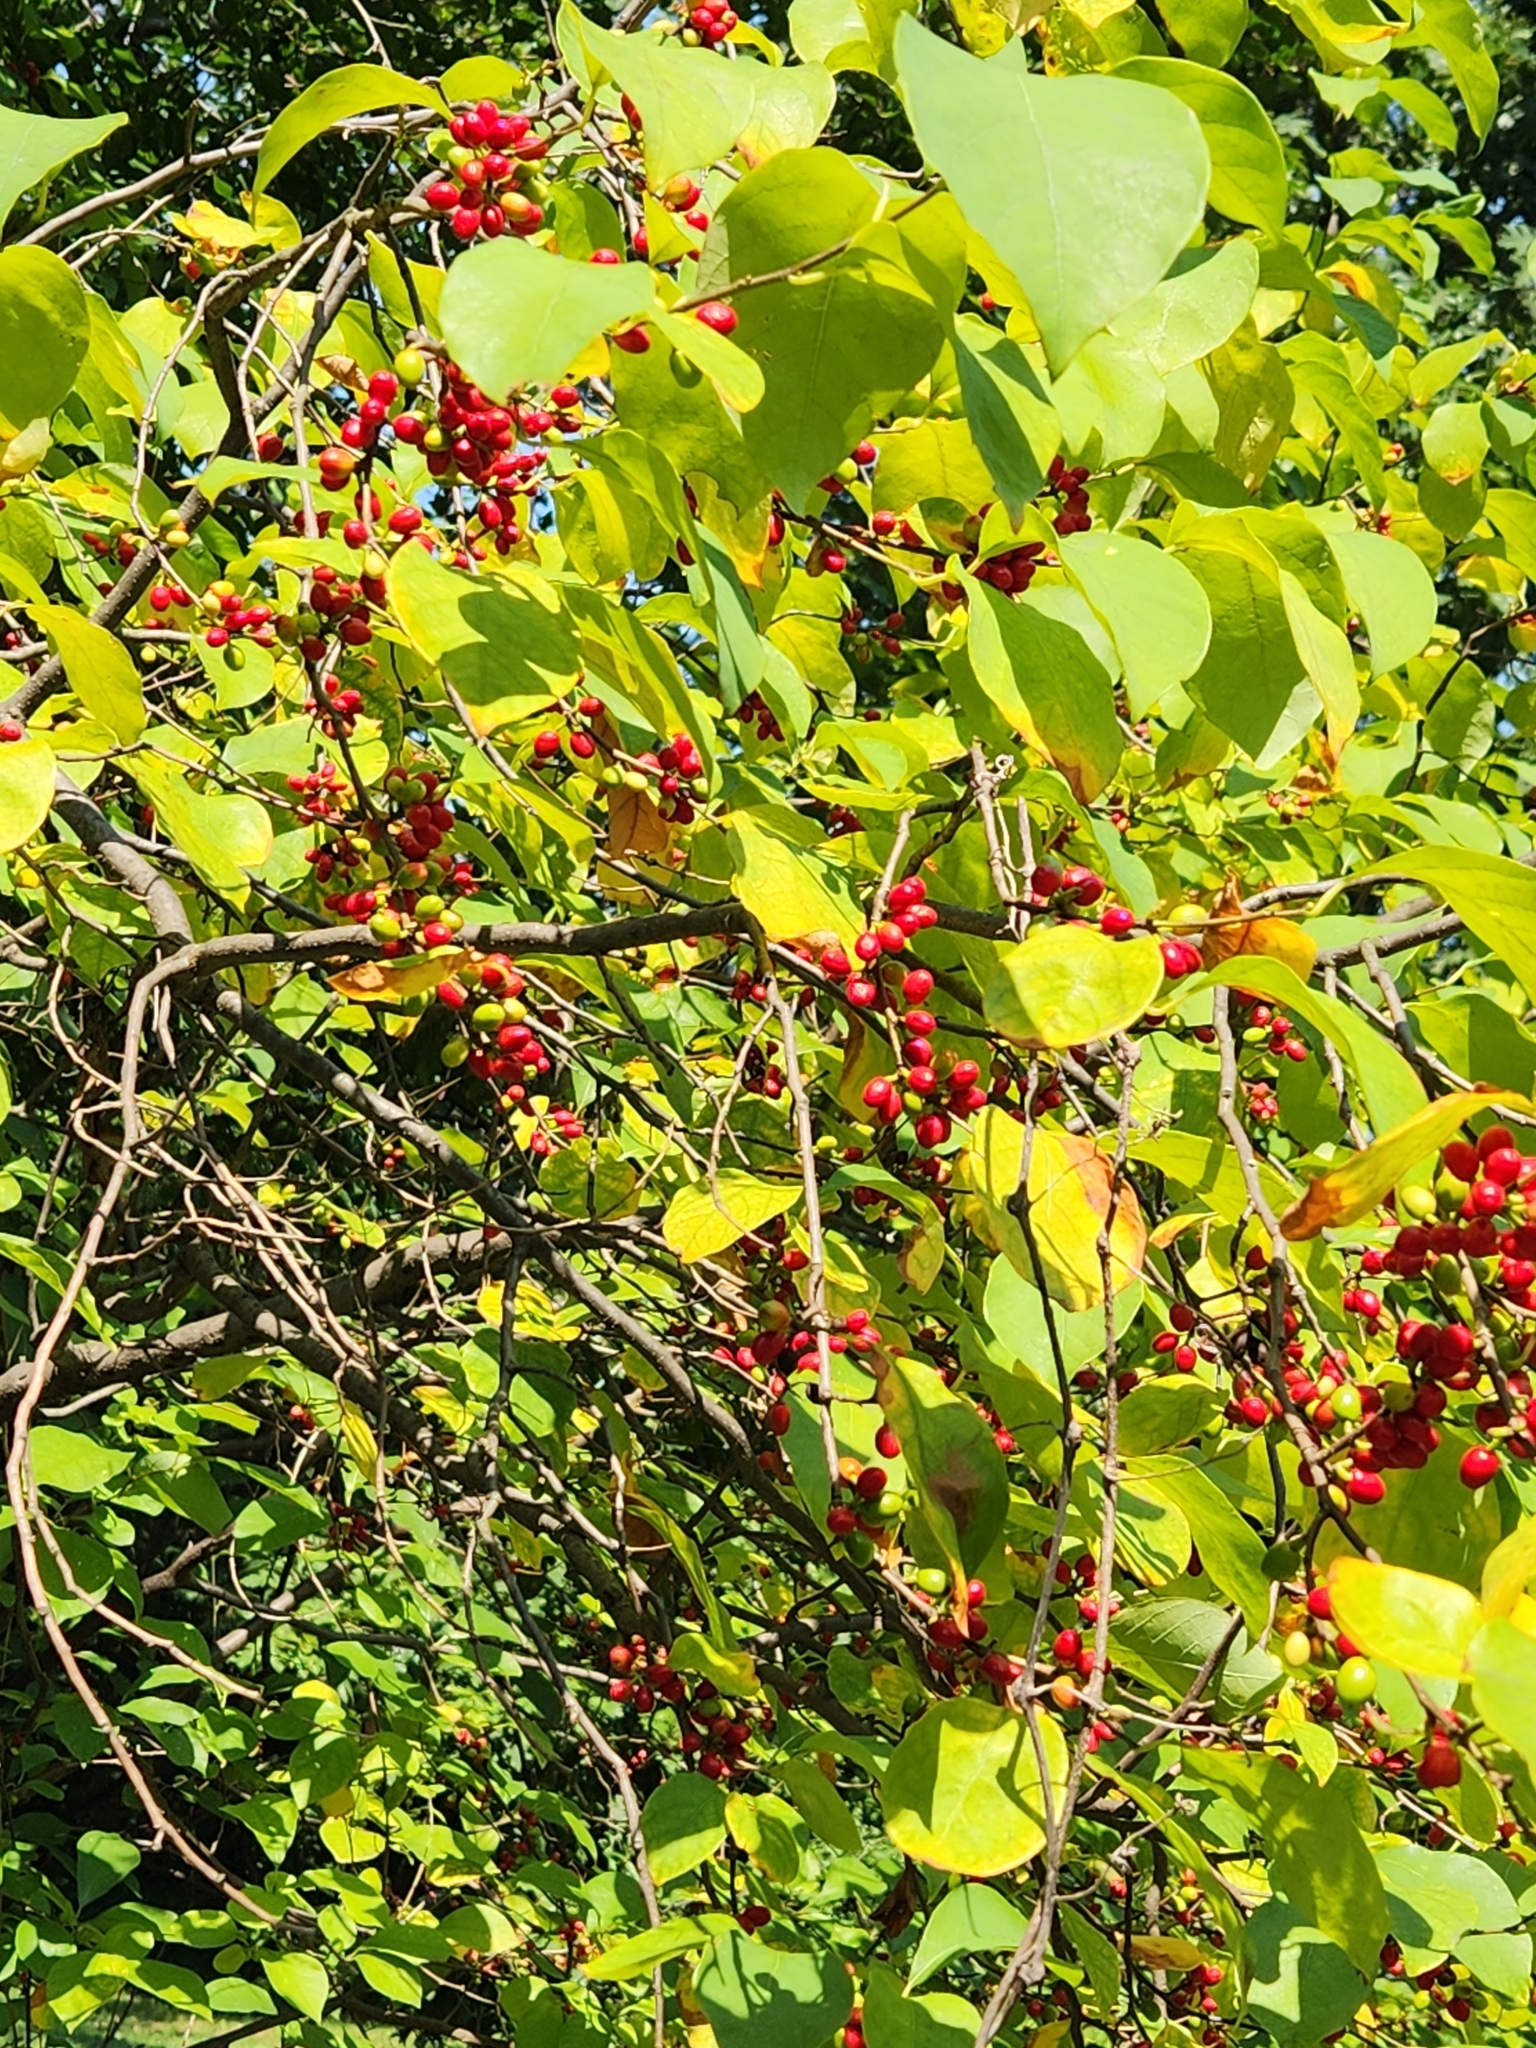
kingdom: Plantae
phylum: Tracheophyta
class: Magnoliopsida
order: Laurales
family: Lauraceae
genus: Lindera
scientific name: Lindera benzoin
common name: Spicebush
